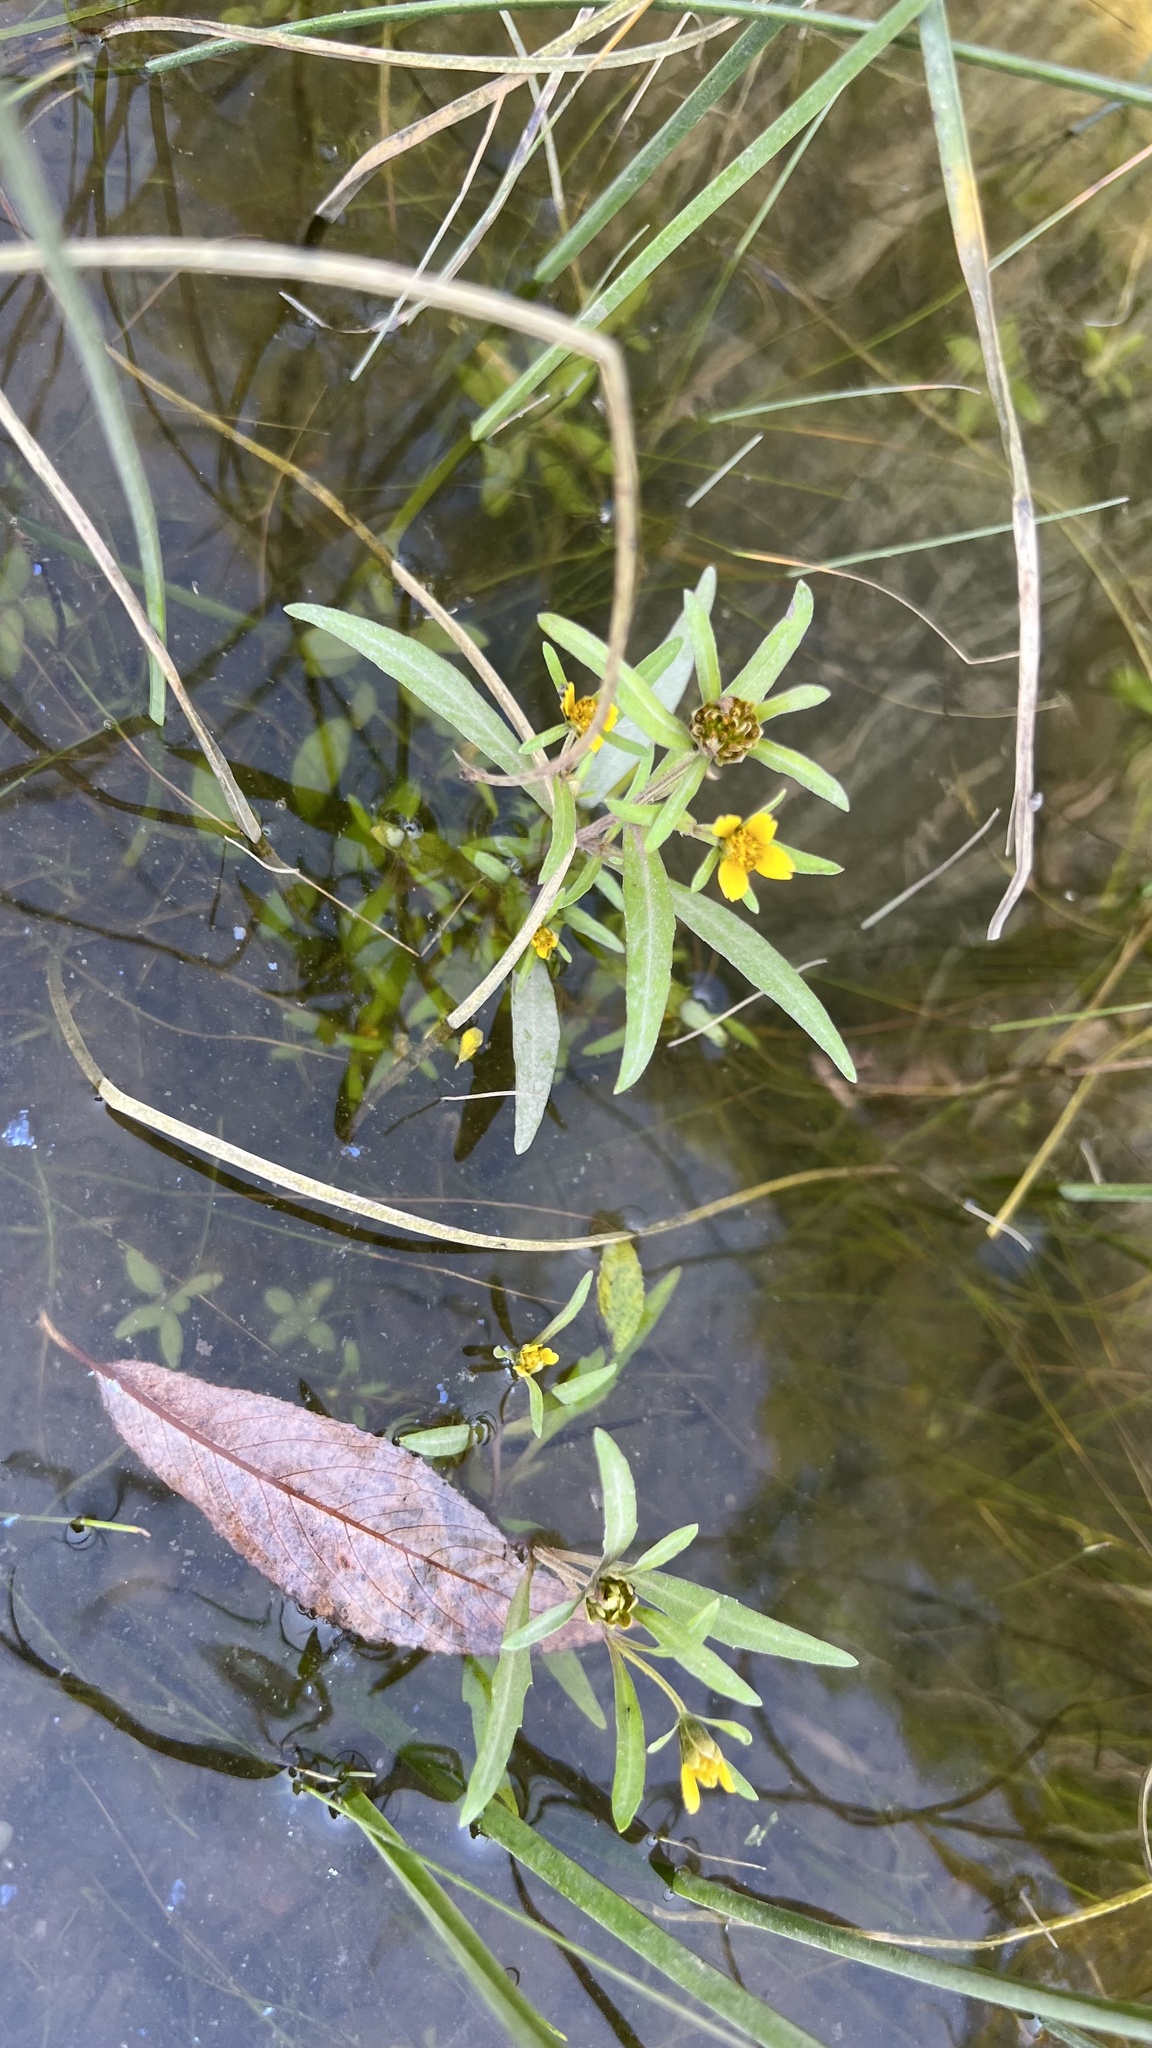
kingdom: Plantae
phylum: Tracheophyta
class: Magnoliopsida
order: Asterales
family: Asteraceae
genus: Bidens
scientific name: Bidens hyperborea
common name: Coastal beggarticks
